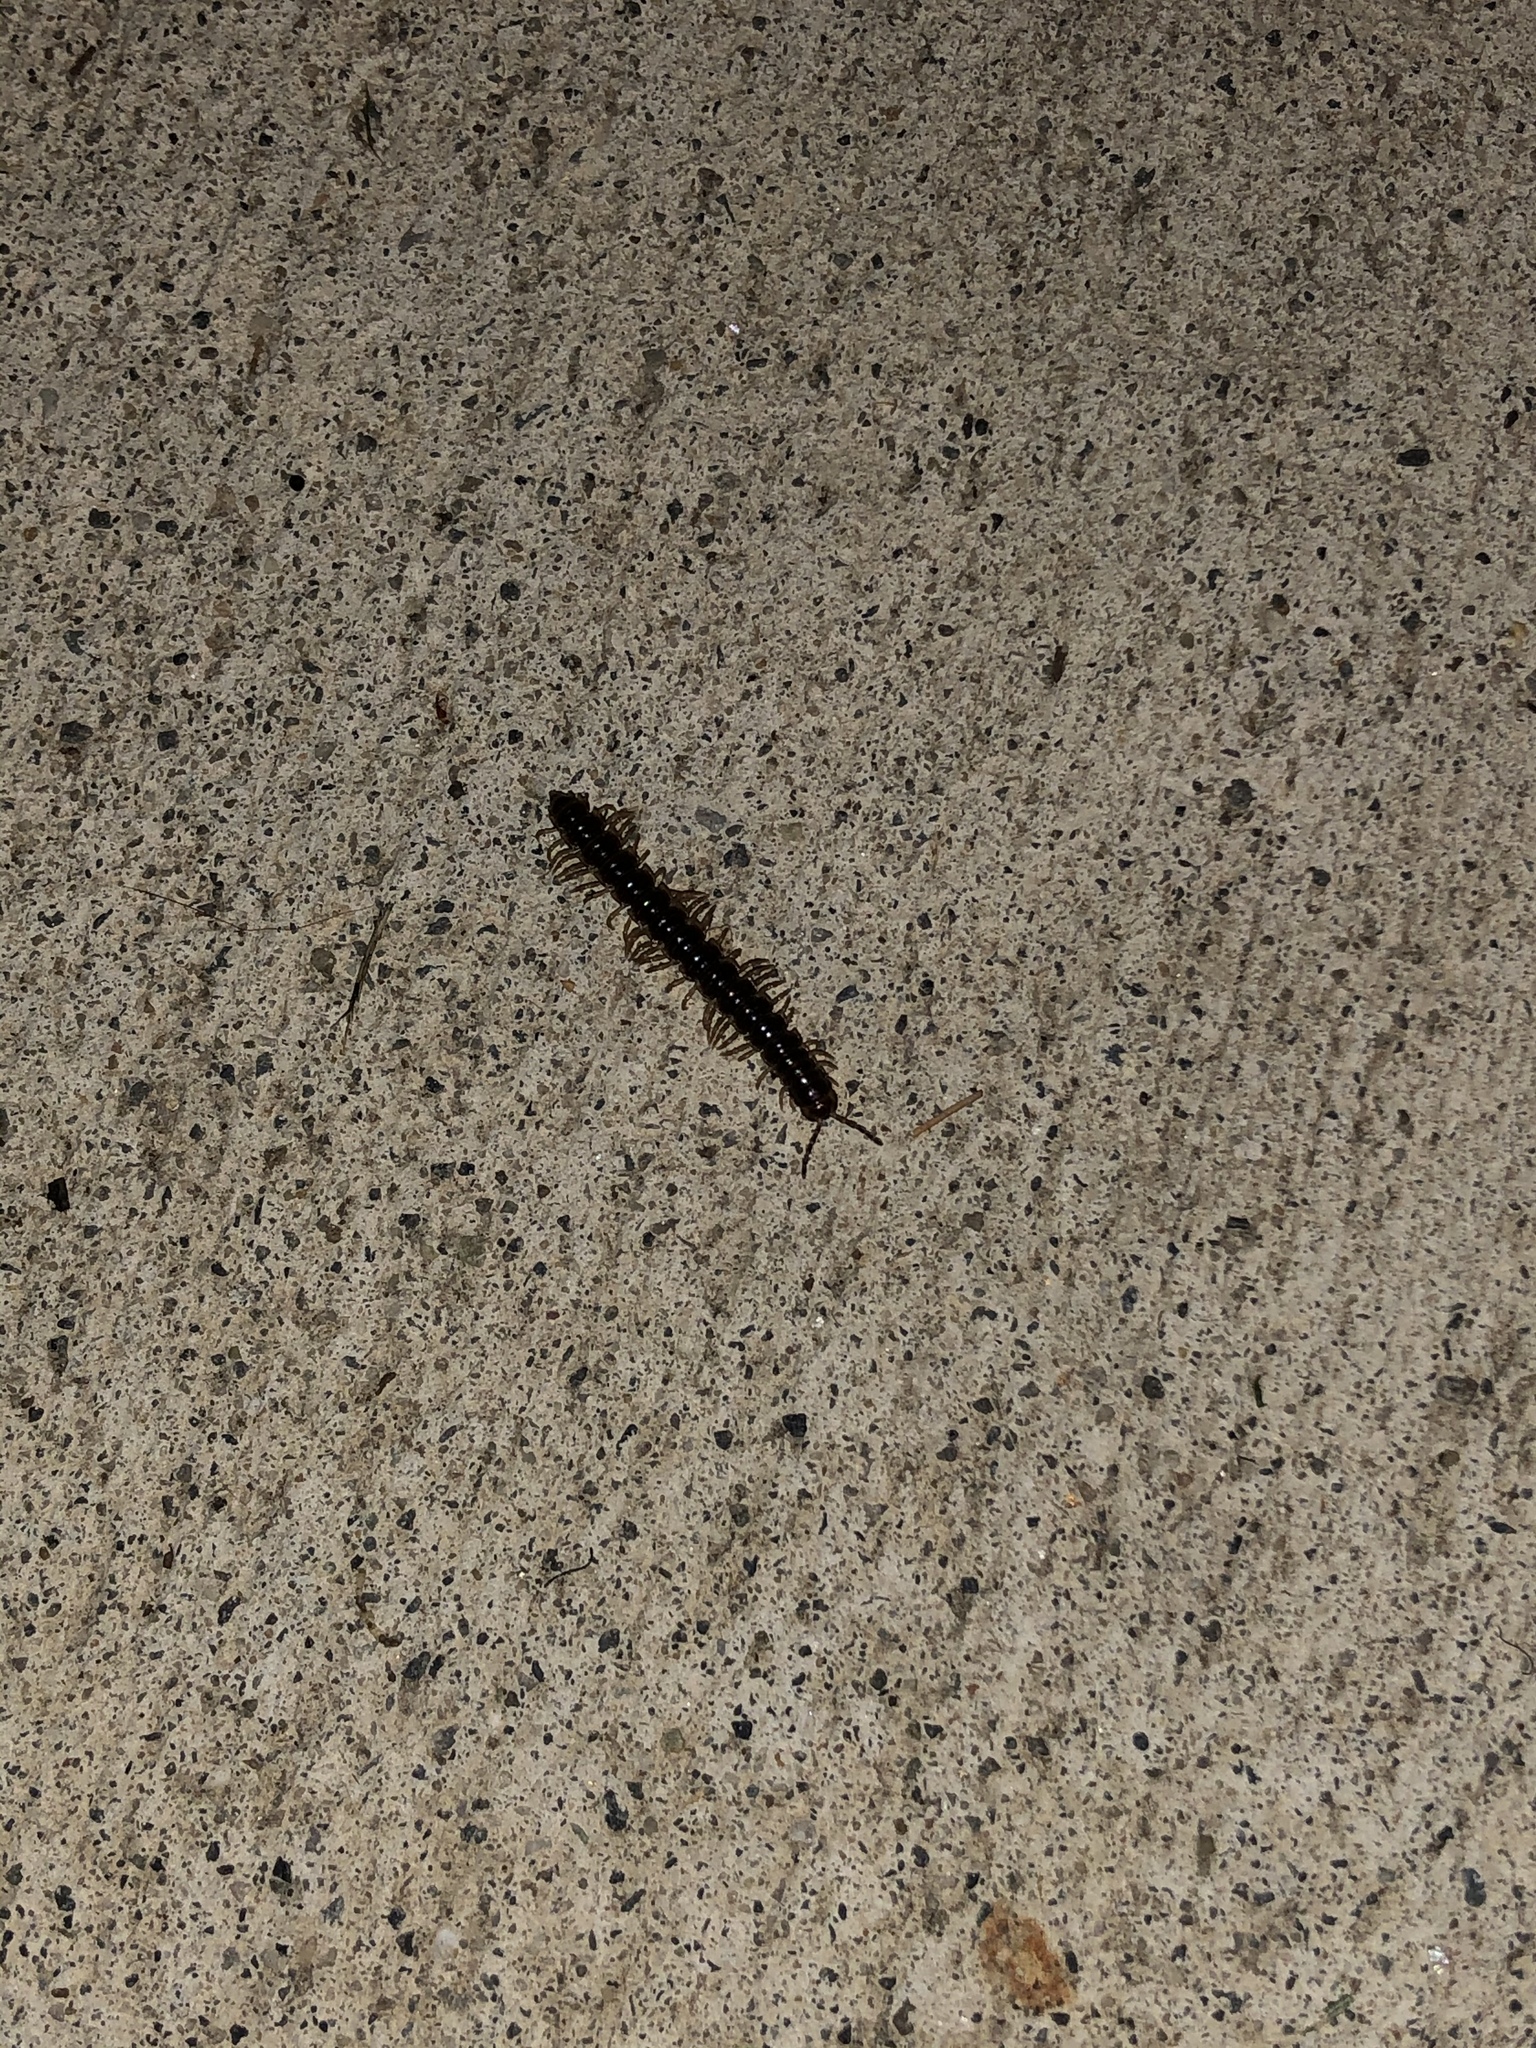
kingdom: Animalia
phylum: Arthropoda
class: Diplopoda
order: Polydesmida
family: Paradoxosomatidae
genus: Oxidus
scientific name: Oxidus gracilis
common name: Greenhouse millipede
